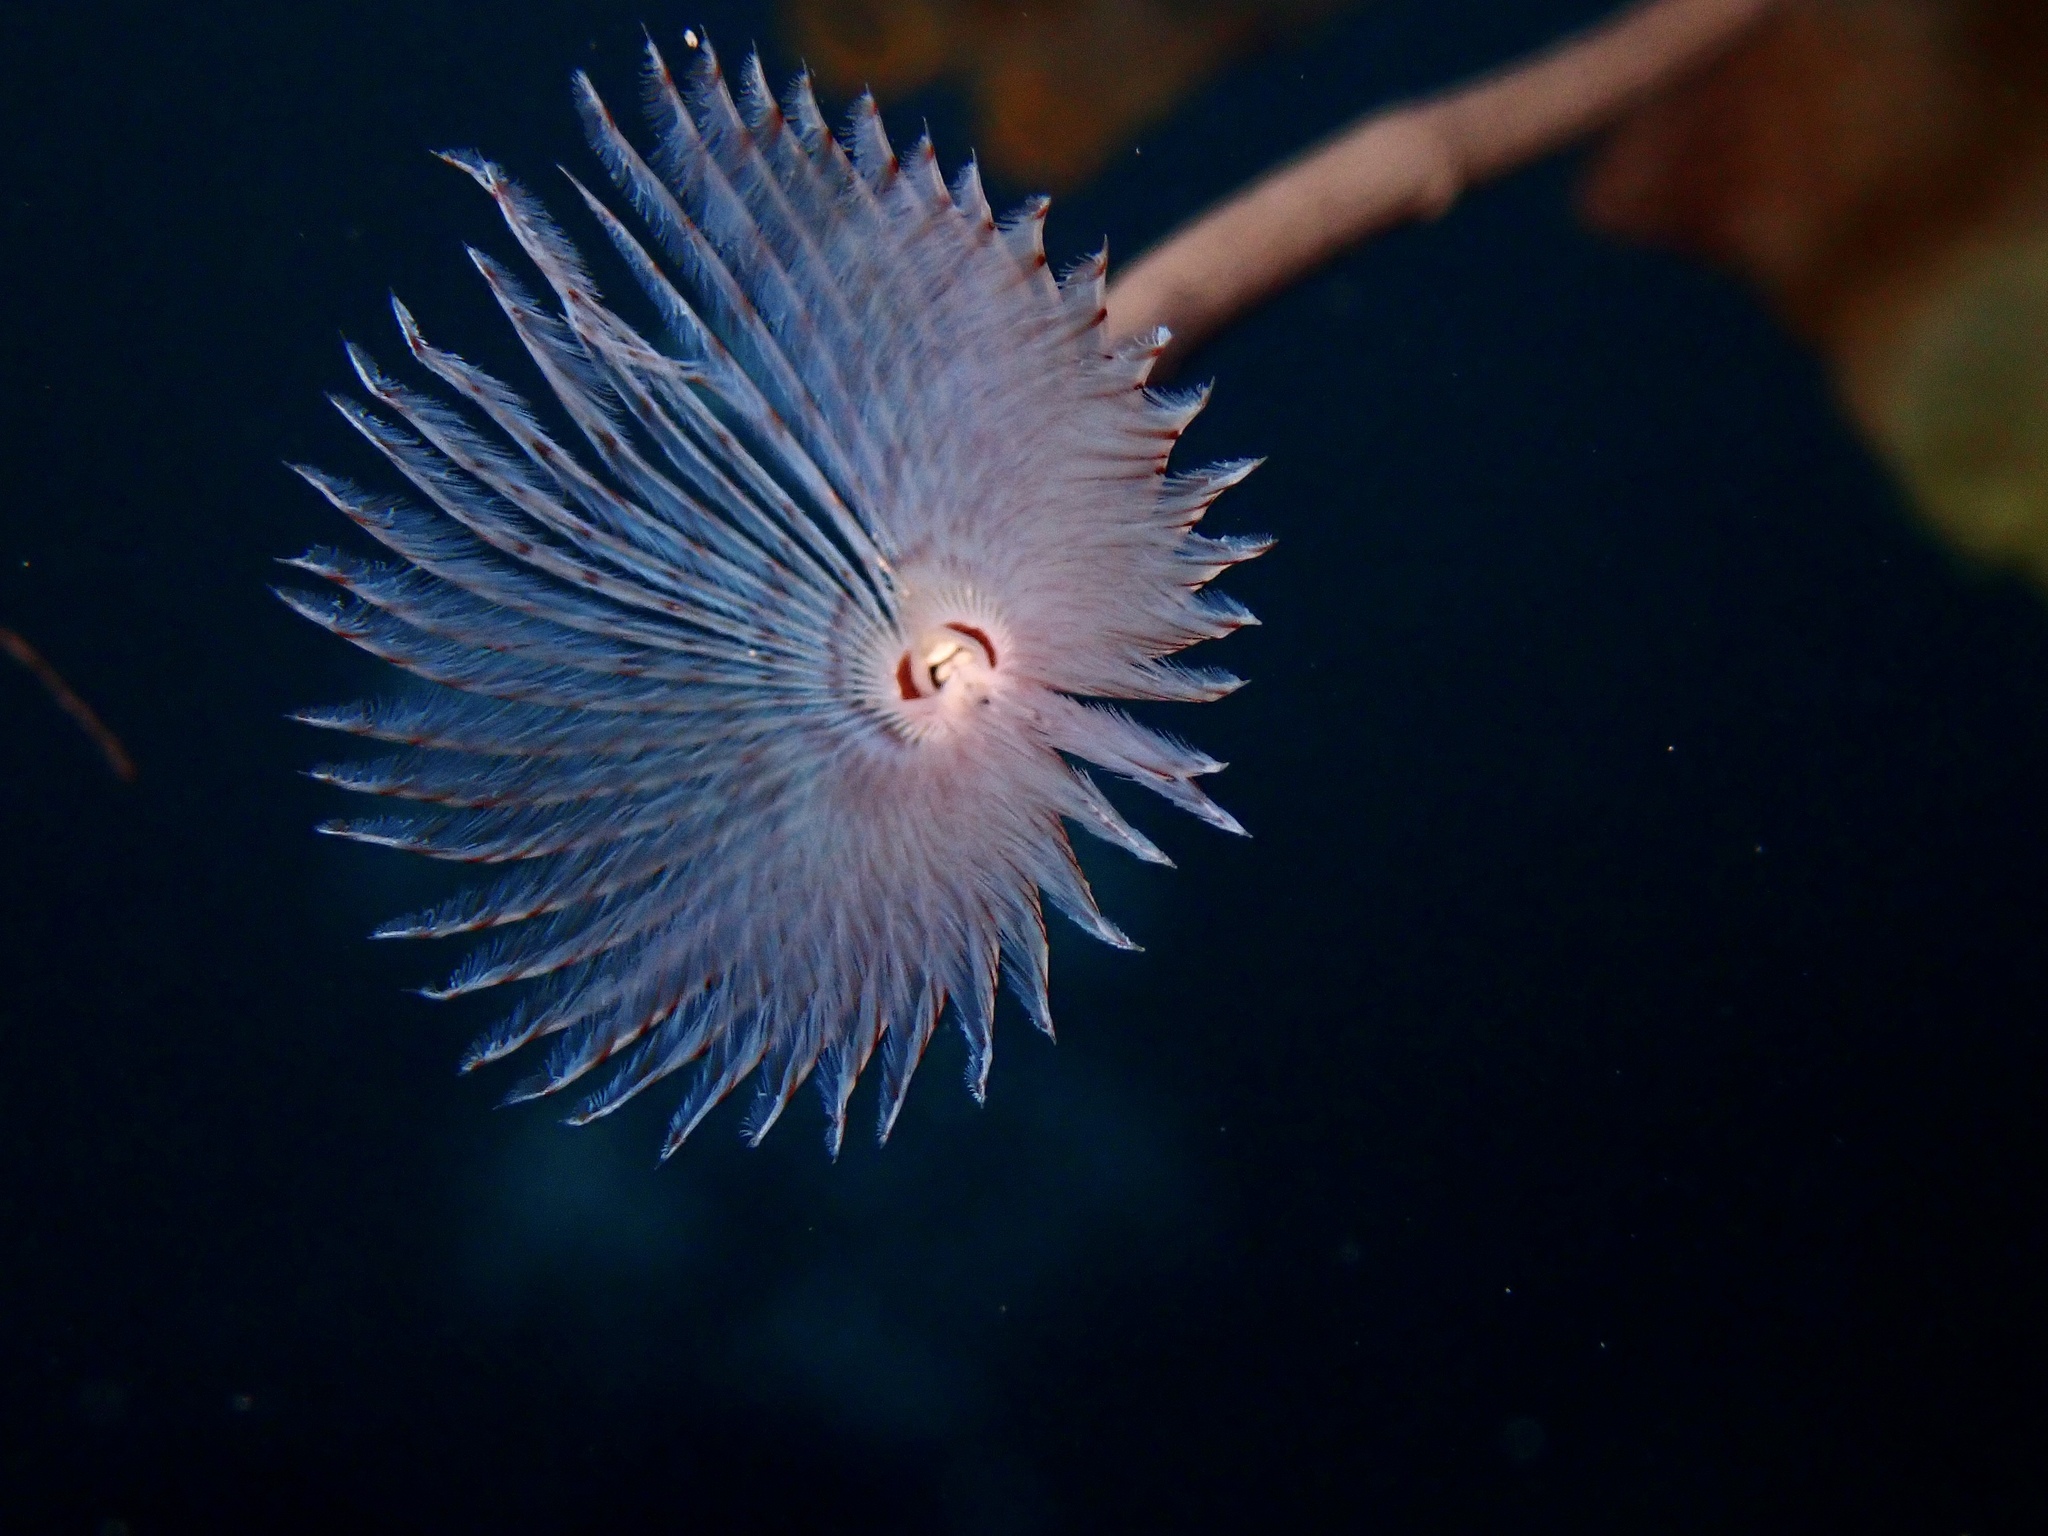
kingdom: Animalia
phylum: Annelida
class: Polychaeta
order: Sabellida
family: Sabellidae
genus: Sabella
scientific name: Sabella pavonina
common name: Peacock worm
